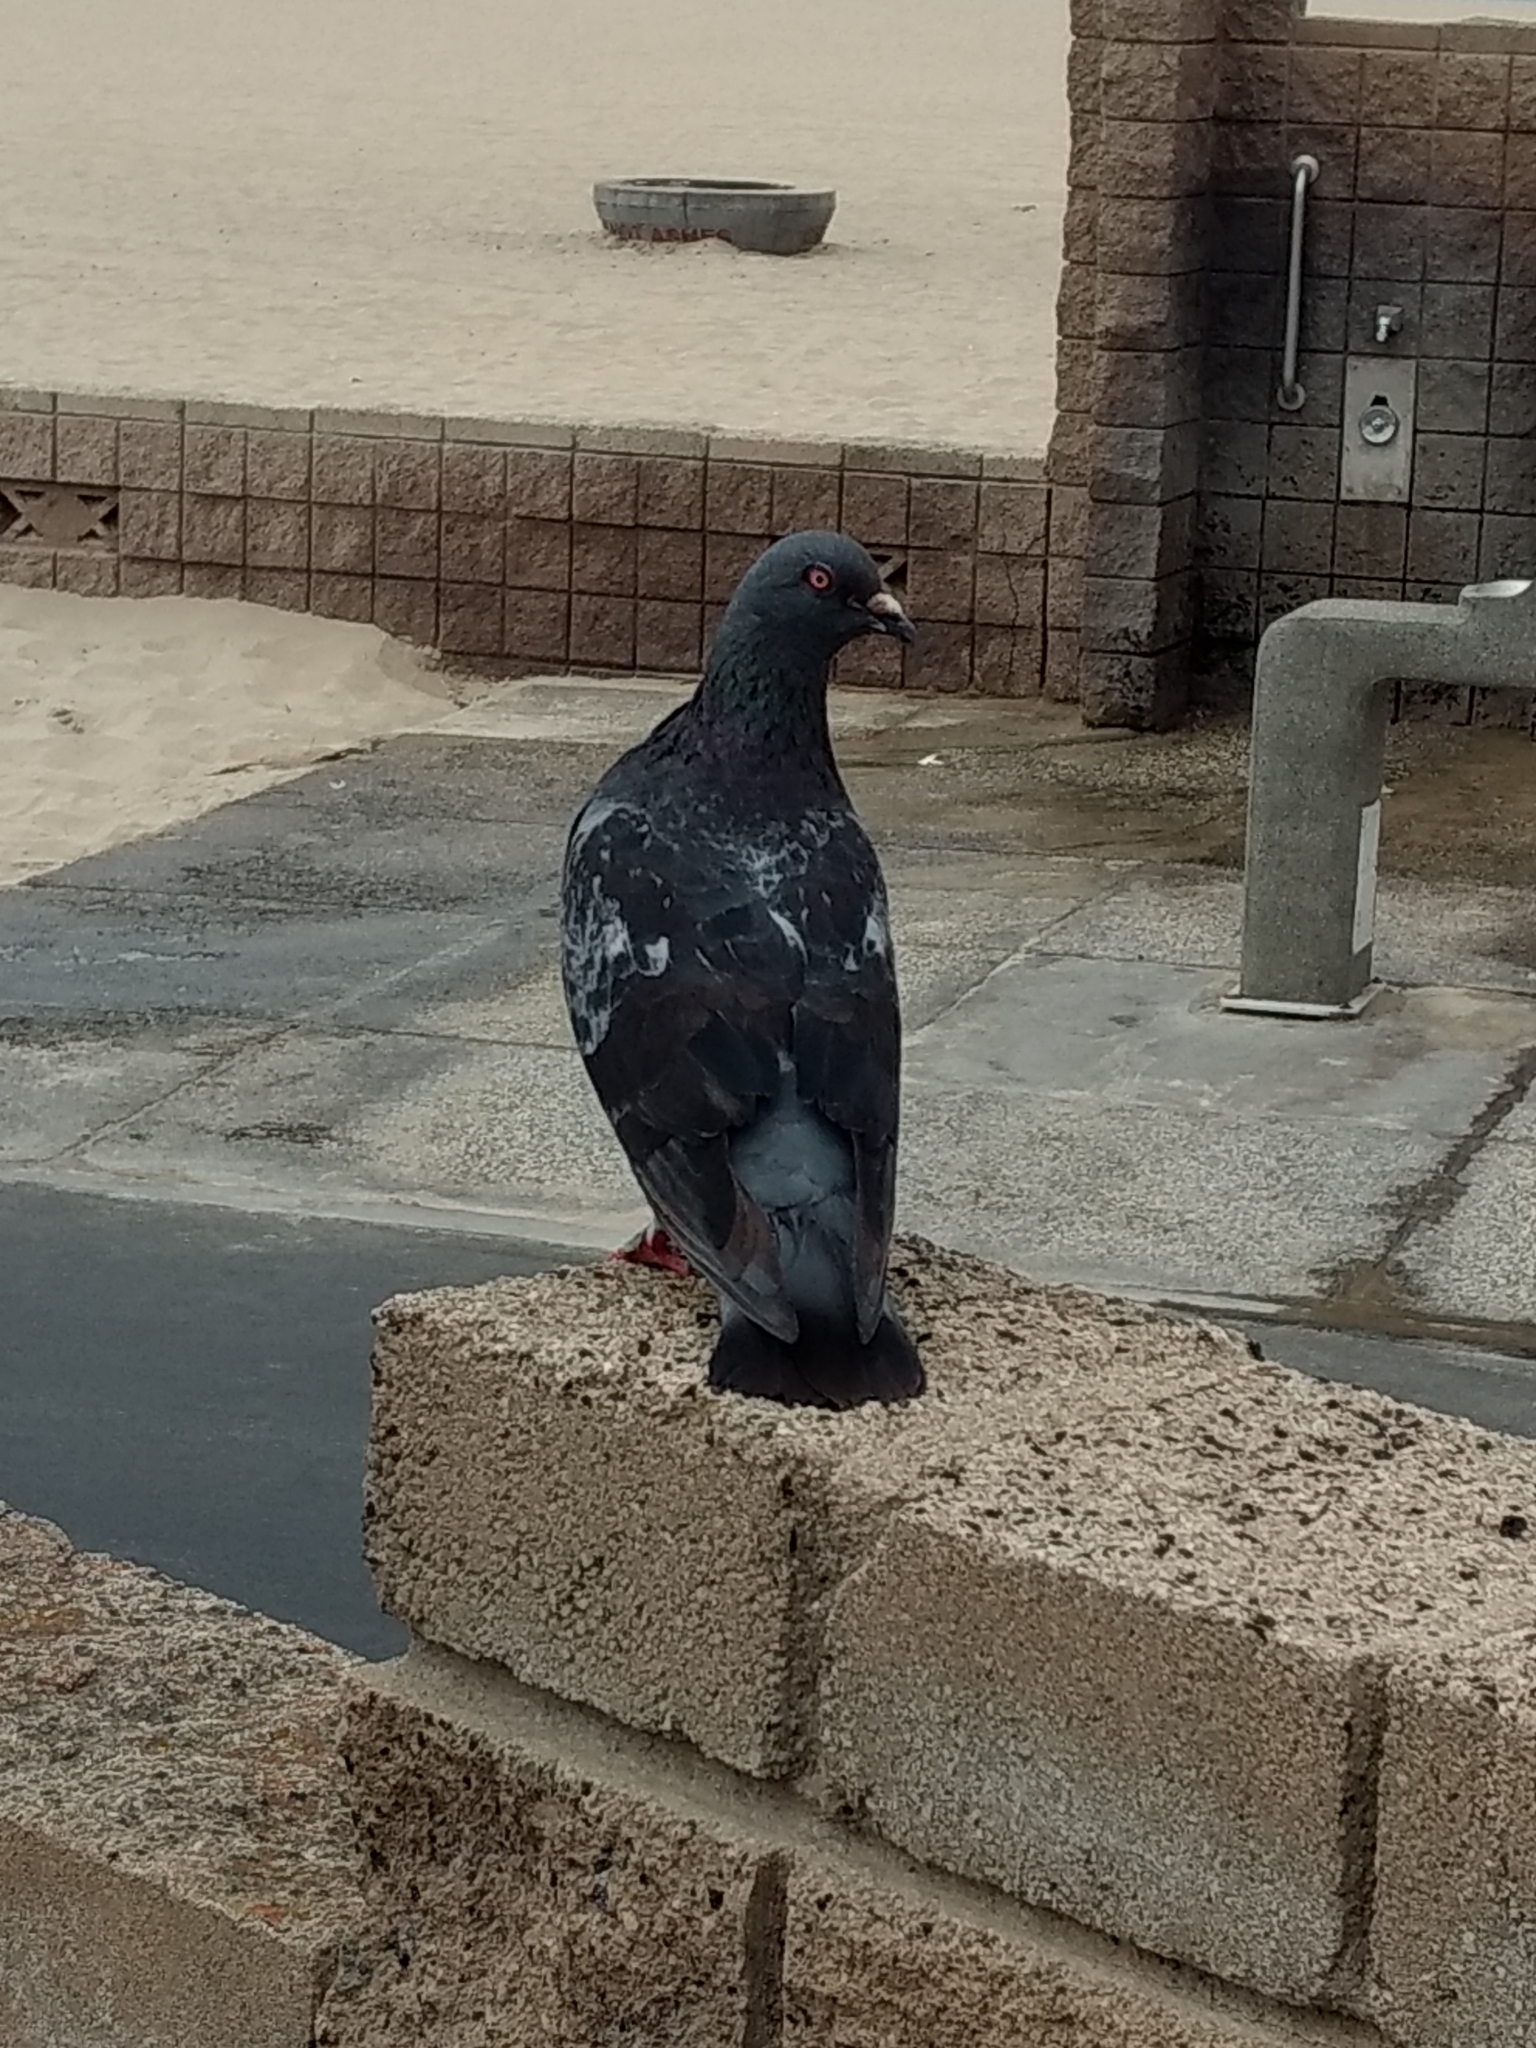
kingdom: Animalia
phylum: Chordata
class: Aves
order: Columbiformes
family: Columbidae
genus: Columba
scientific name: Columba livia
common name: Rock pigeon
